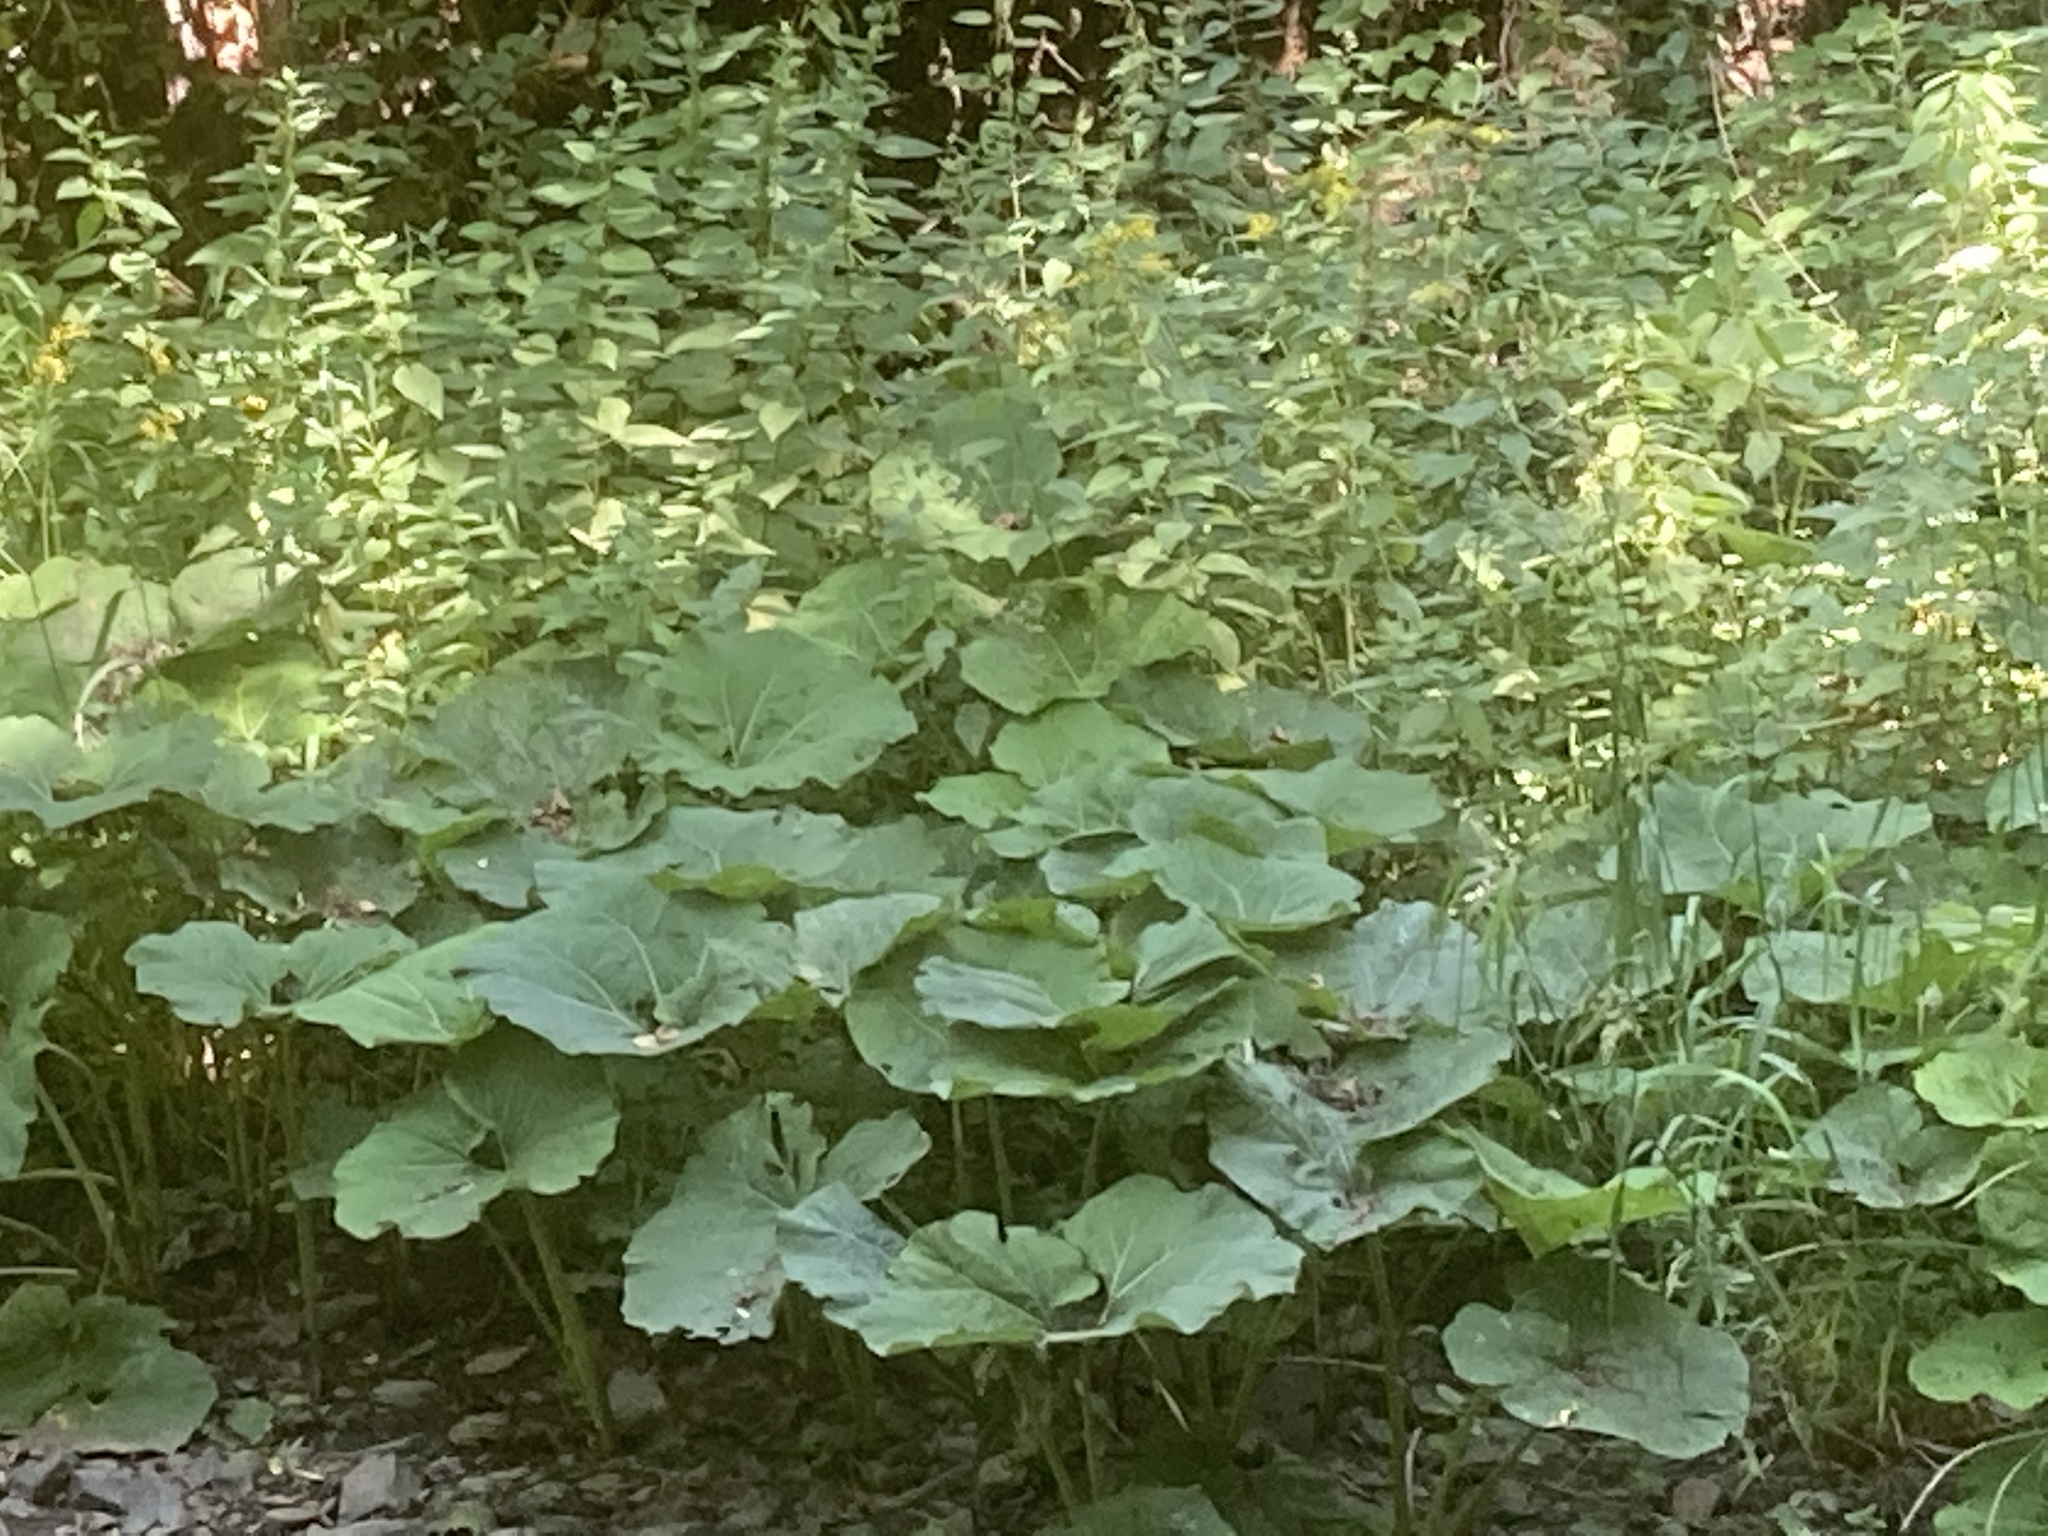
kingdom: Plantae
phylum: Tracheophyta
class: Magnoliopsida
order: Asterales
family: Asteraceae
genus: Petasites
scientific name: Petasites japonicus
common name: Giant butterbur
